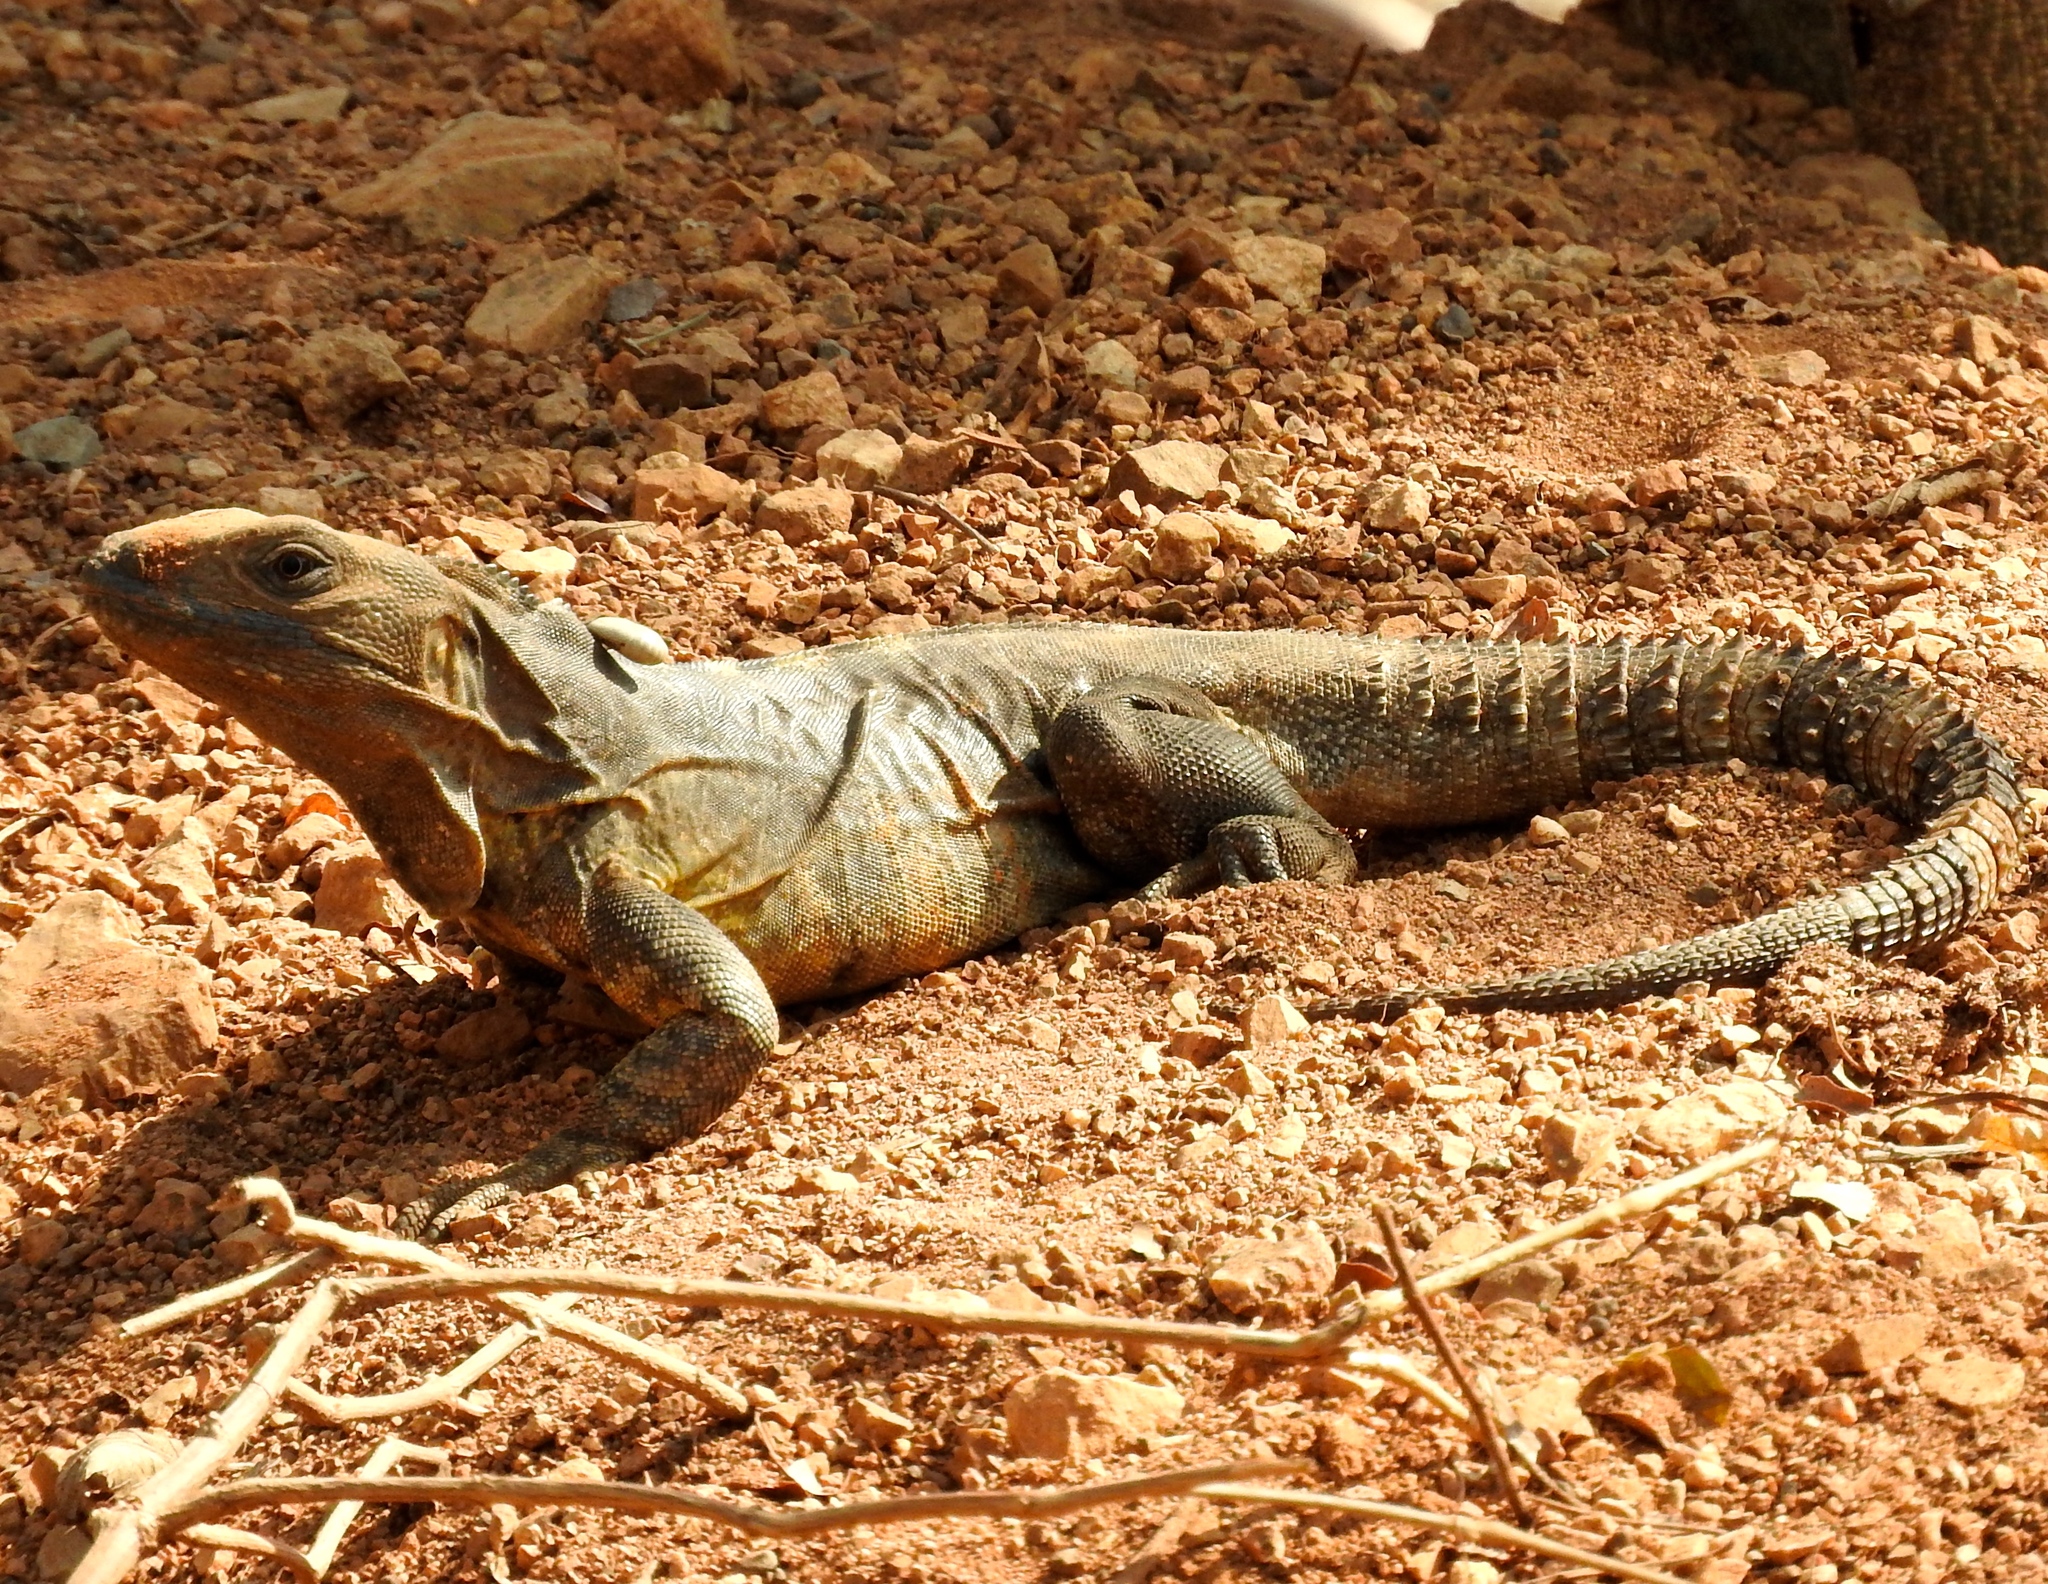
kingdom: Animalia
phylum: Chordata
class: Squamata
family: Iguanidae
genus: Ctenosaura
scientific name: Ctenosaura pectinata
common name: Guerreran spiny-tailed iguana
